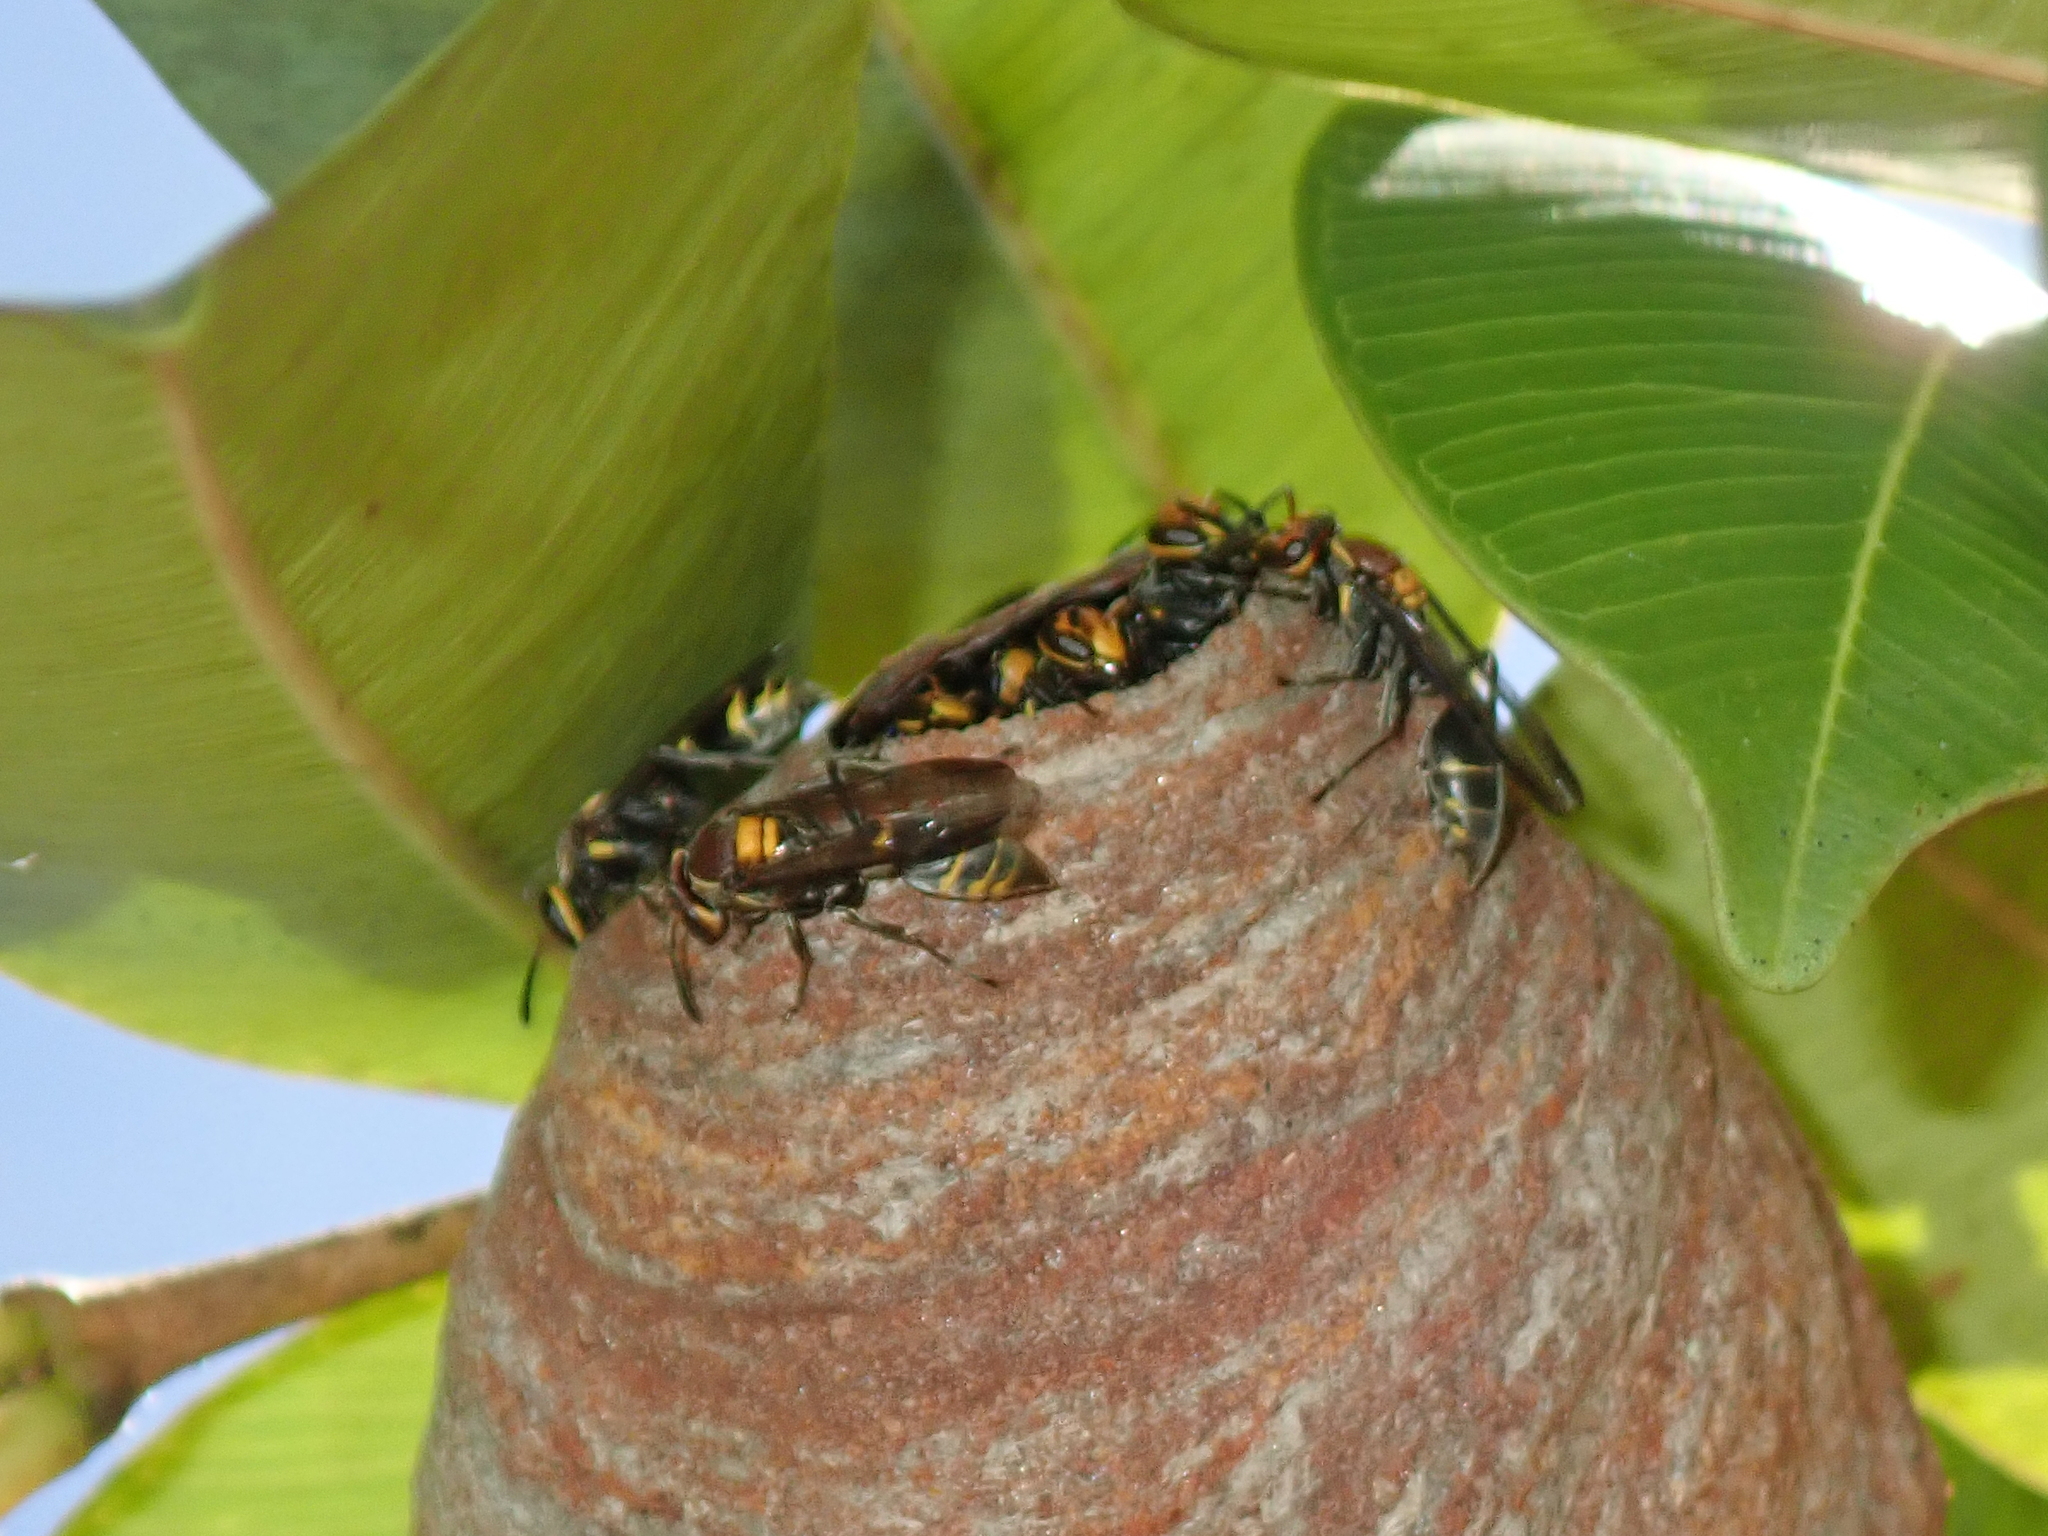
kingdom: Animalia
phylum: Arthropoda
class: Insecta
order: Hymenoptera
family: Eumenidae
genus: Polybia
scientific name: Polybia ruficeps
